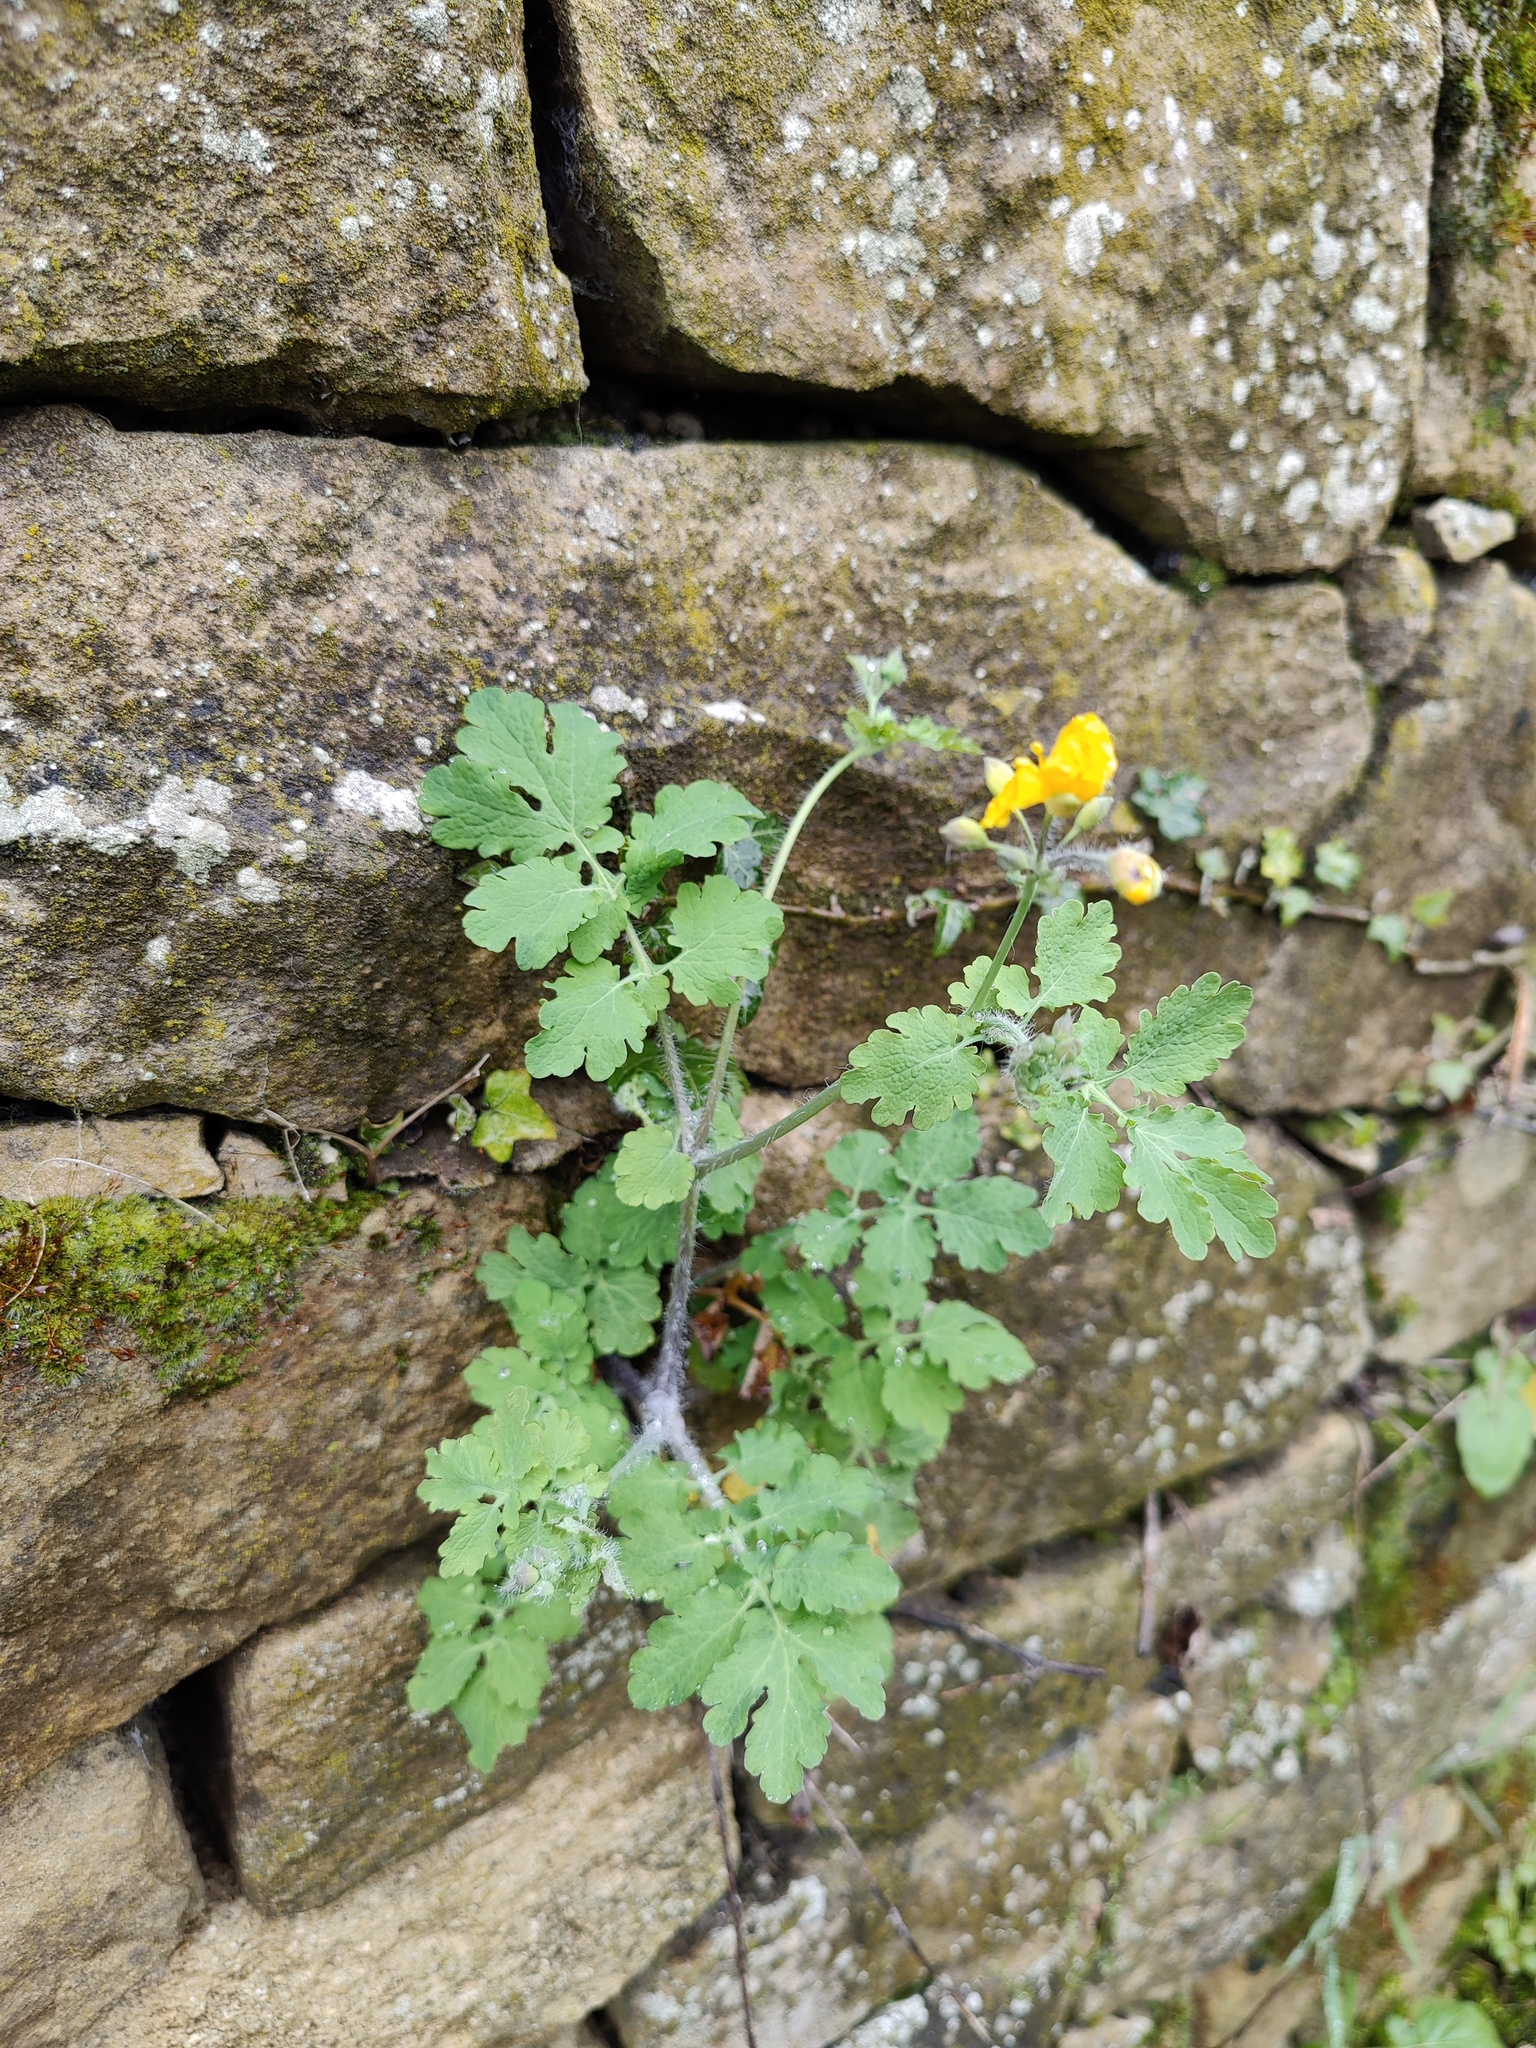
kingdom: Plantae
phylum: Tracheophyta
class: Magnoliopsida
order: Ranunculales
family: Papaveraceae
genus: Chelidonium
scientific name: Chelidonium majus
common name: Greater celandine
